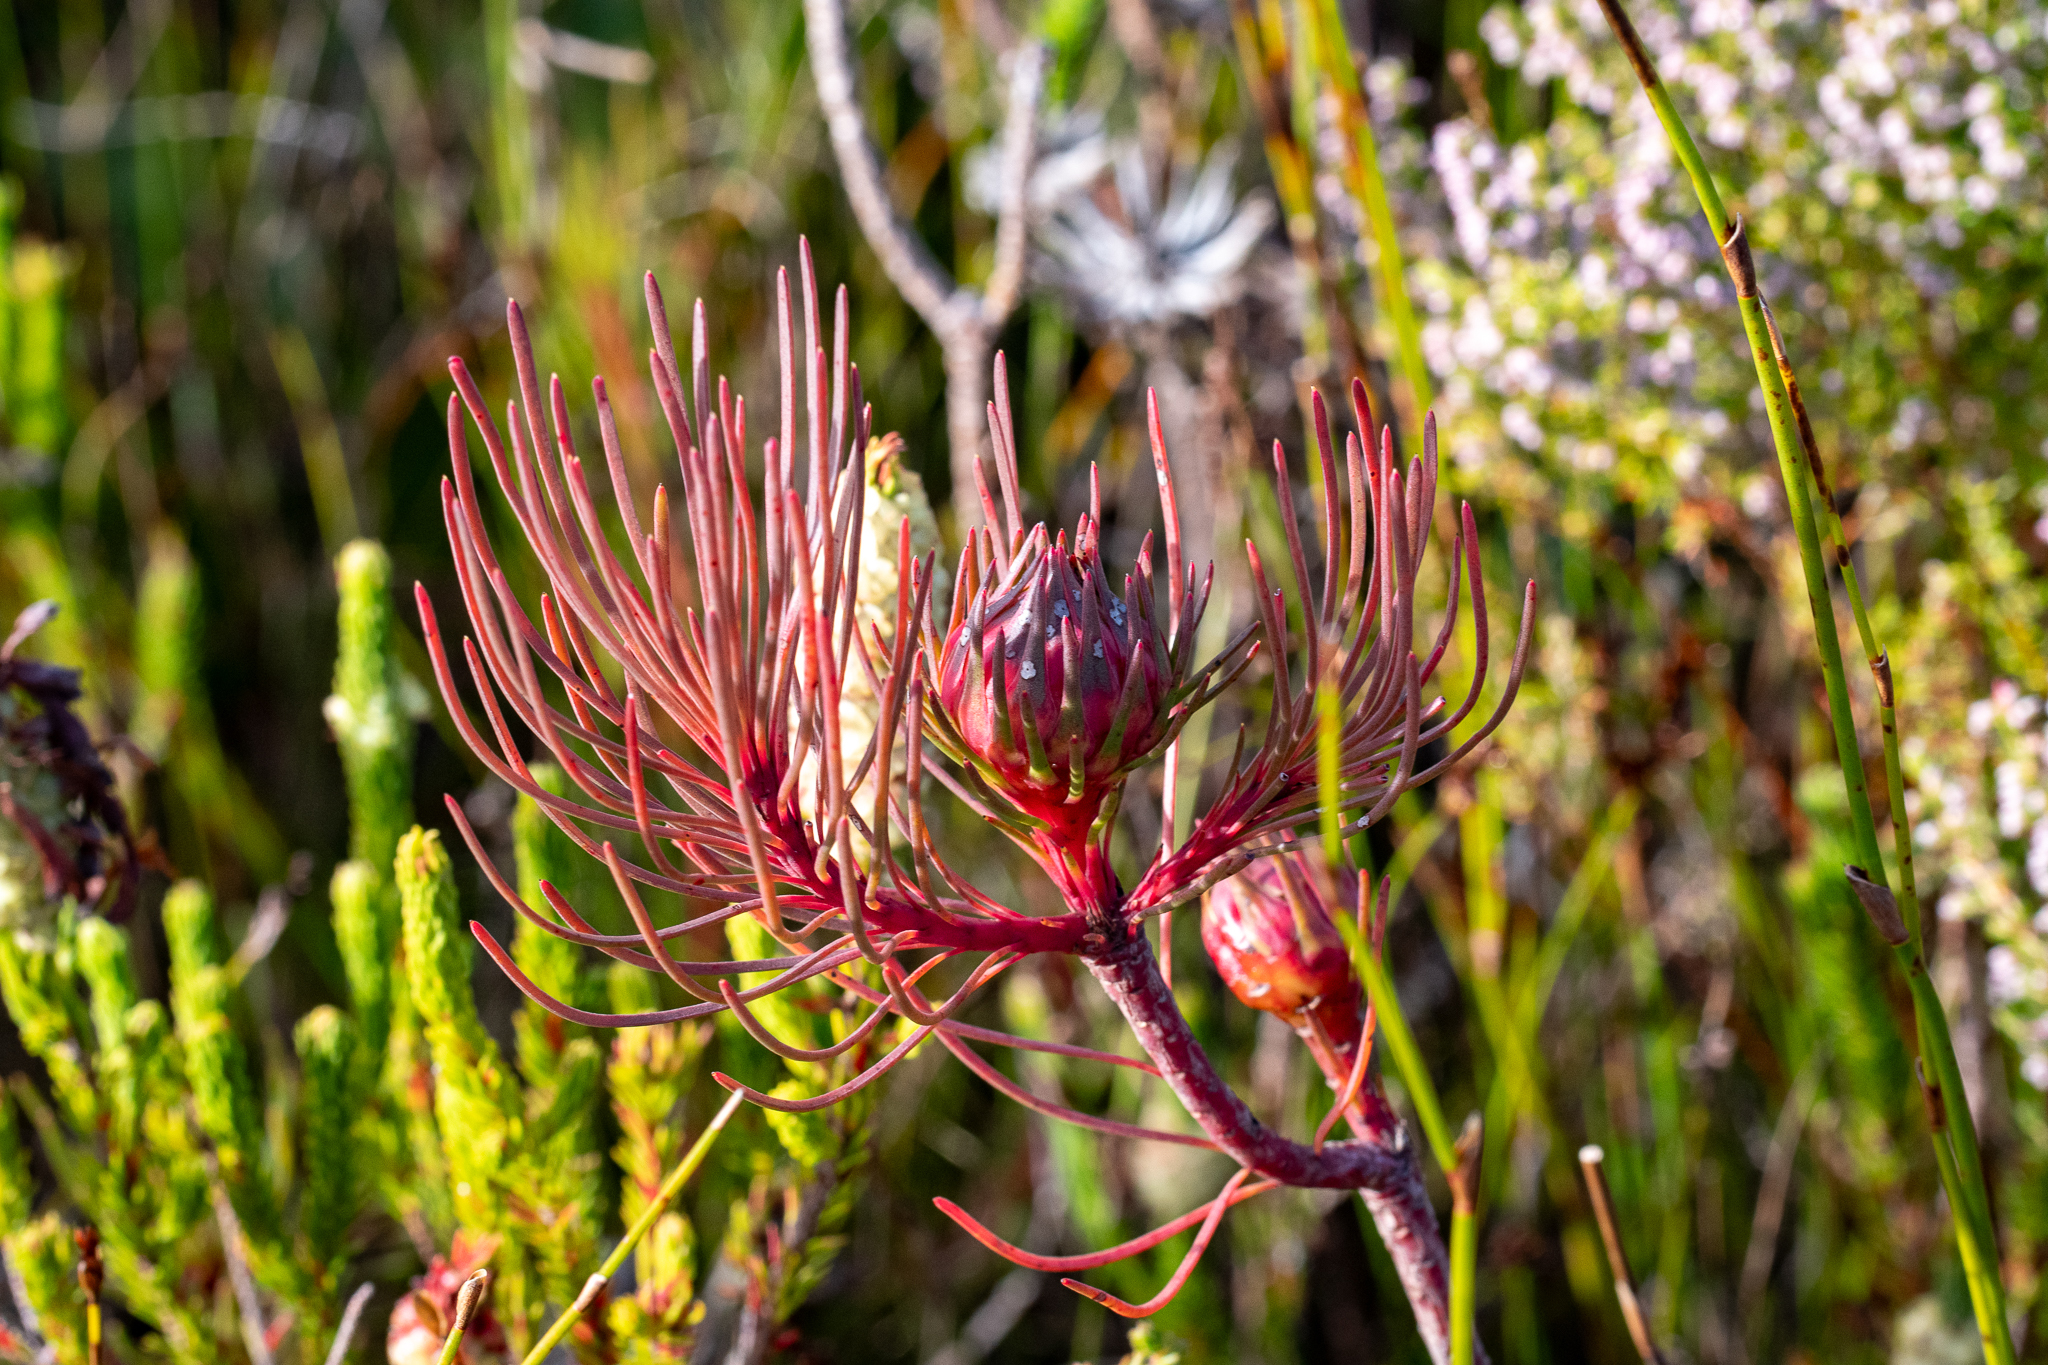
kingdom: Plantae
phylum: Tracheophyta
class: Magnoliopsida
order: Proteales
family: Proteaceae
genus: Aulax
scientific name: Aulax cancellata
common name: Channel-leaf featherbush
